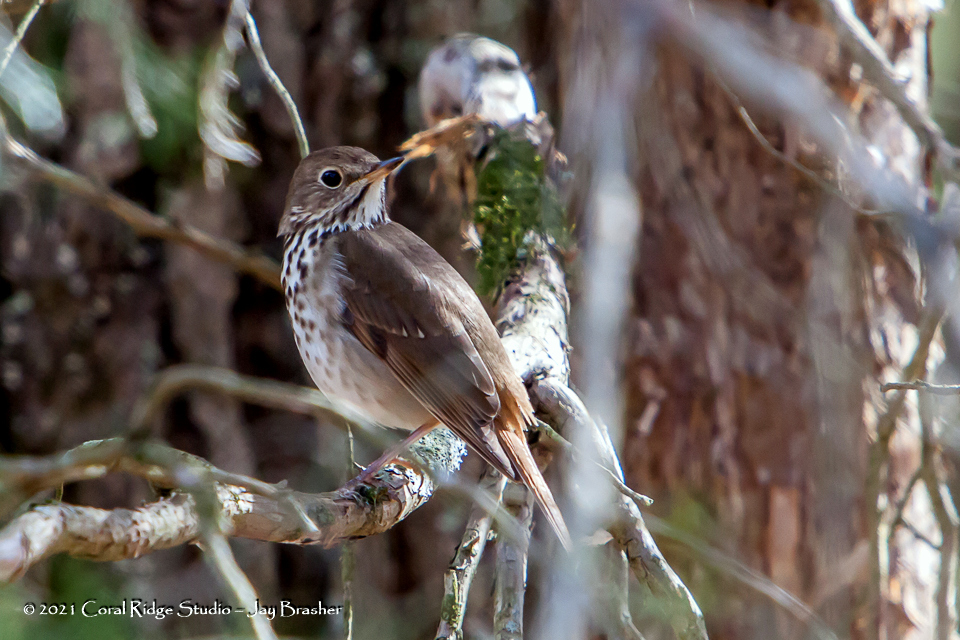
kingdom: Animalia
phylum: Chordata
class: Aves
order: Passeriformes
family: Turdidae
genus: Catharus
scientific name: Catharus guttatus
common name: Hermit thrush
